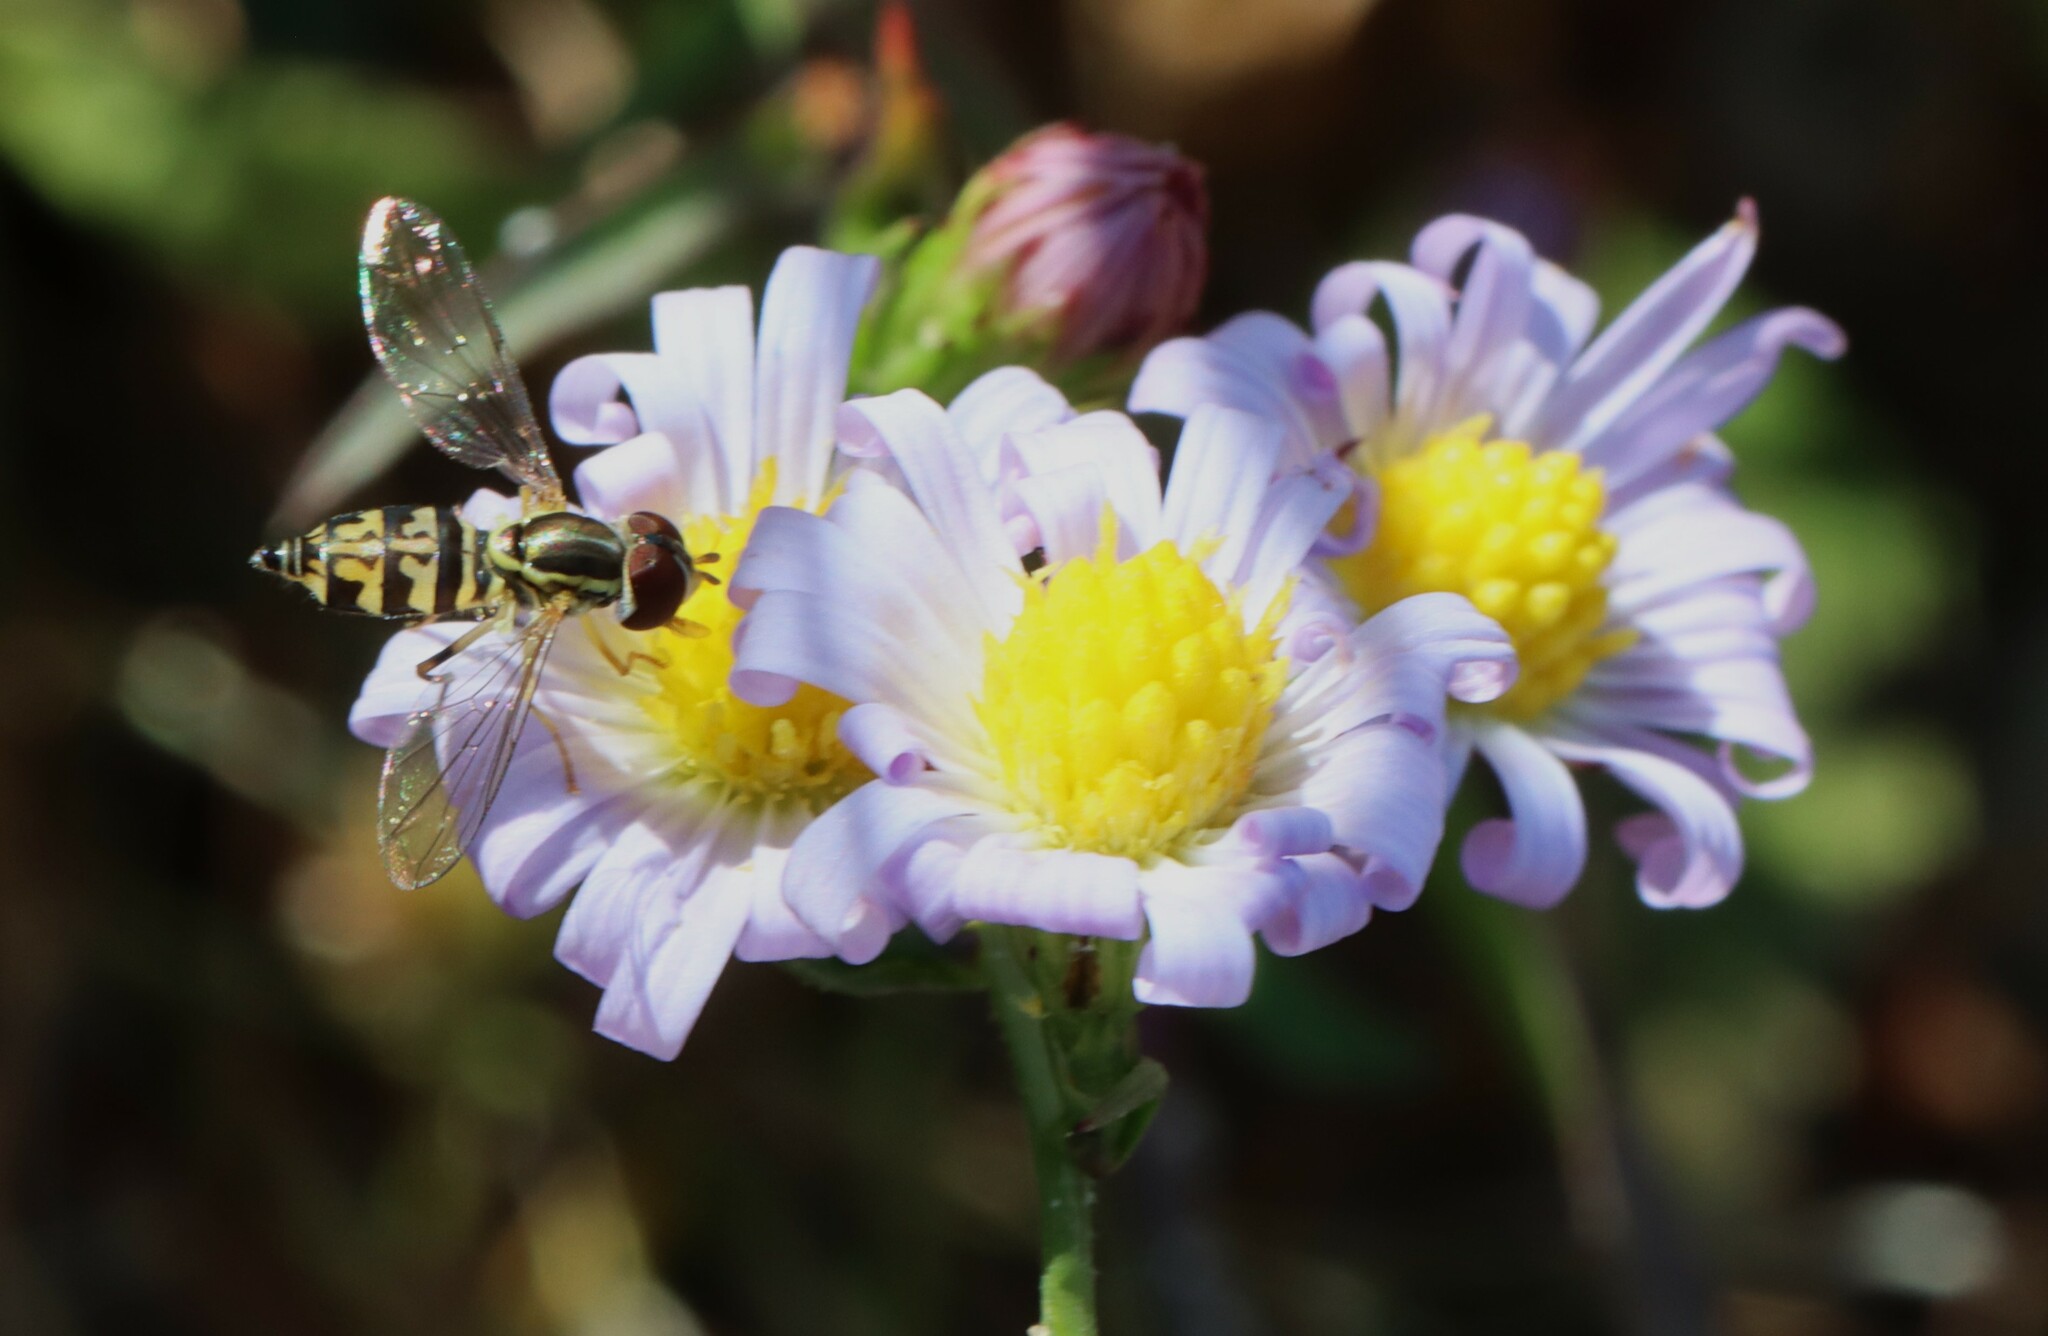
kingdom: Animalia
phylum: Arthropoda
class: Insecta
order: Diptera
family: Syrphidae
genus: Toxomerus
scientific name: Toxomerus geminatus
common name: Eastern calligrapher
